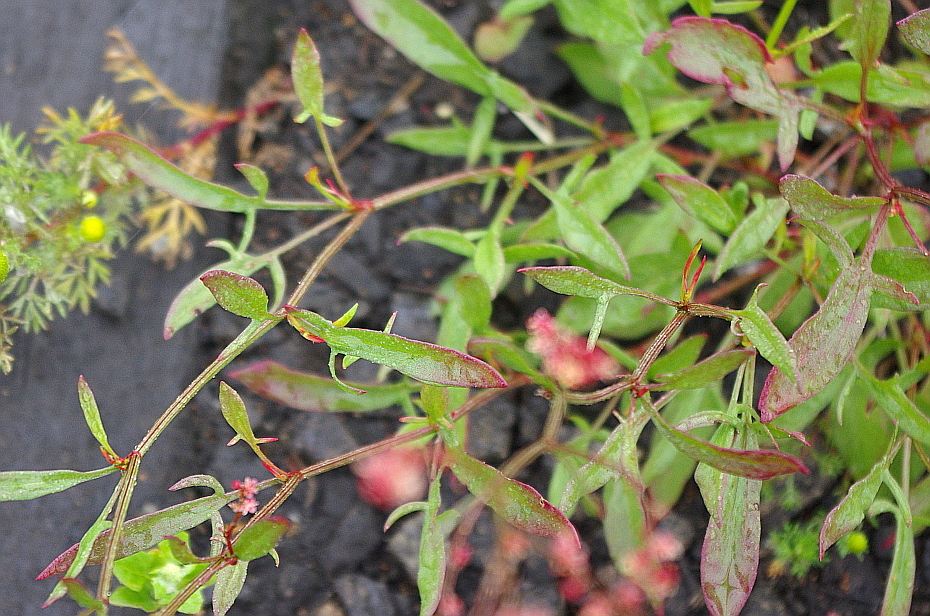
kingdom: Plantae
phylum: Tracheophyta
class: Magnoliopsida
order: Caryophyllales
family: Polygonaceae
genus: Rumex
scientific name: Rumex acetosella
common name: Common sheep sorrel
